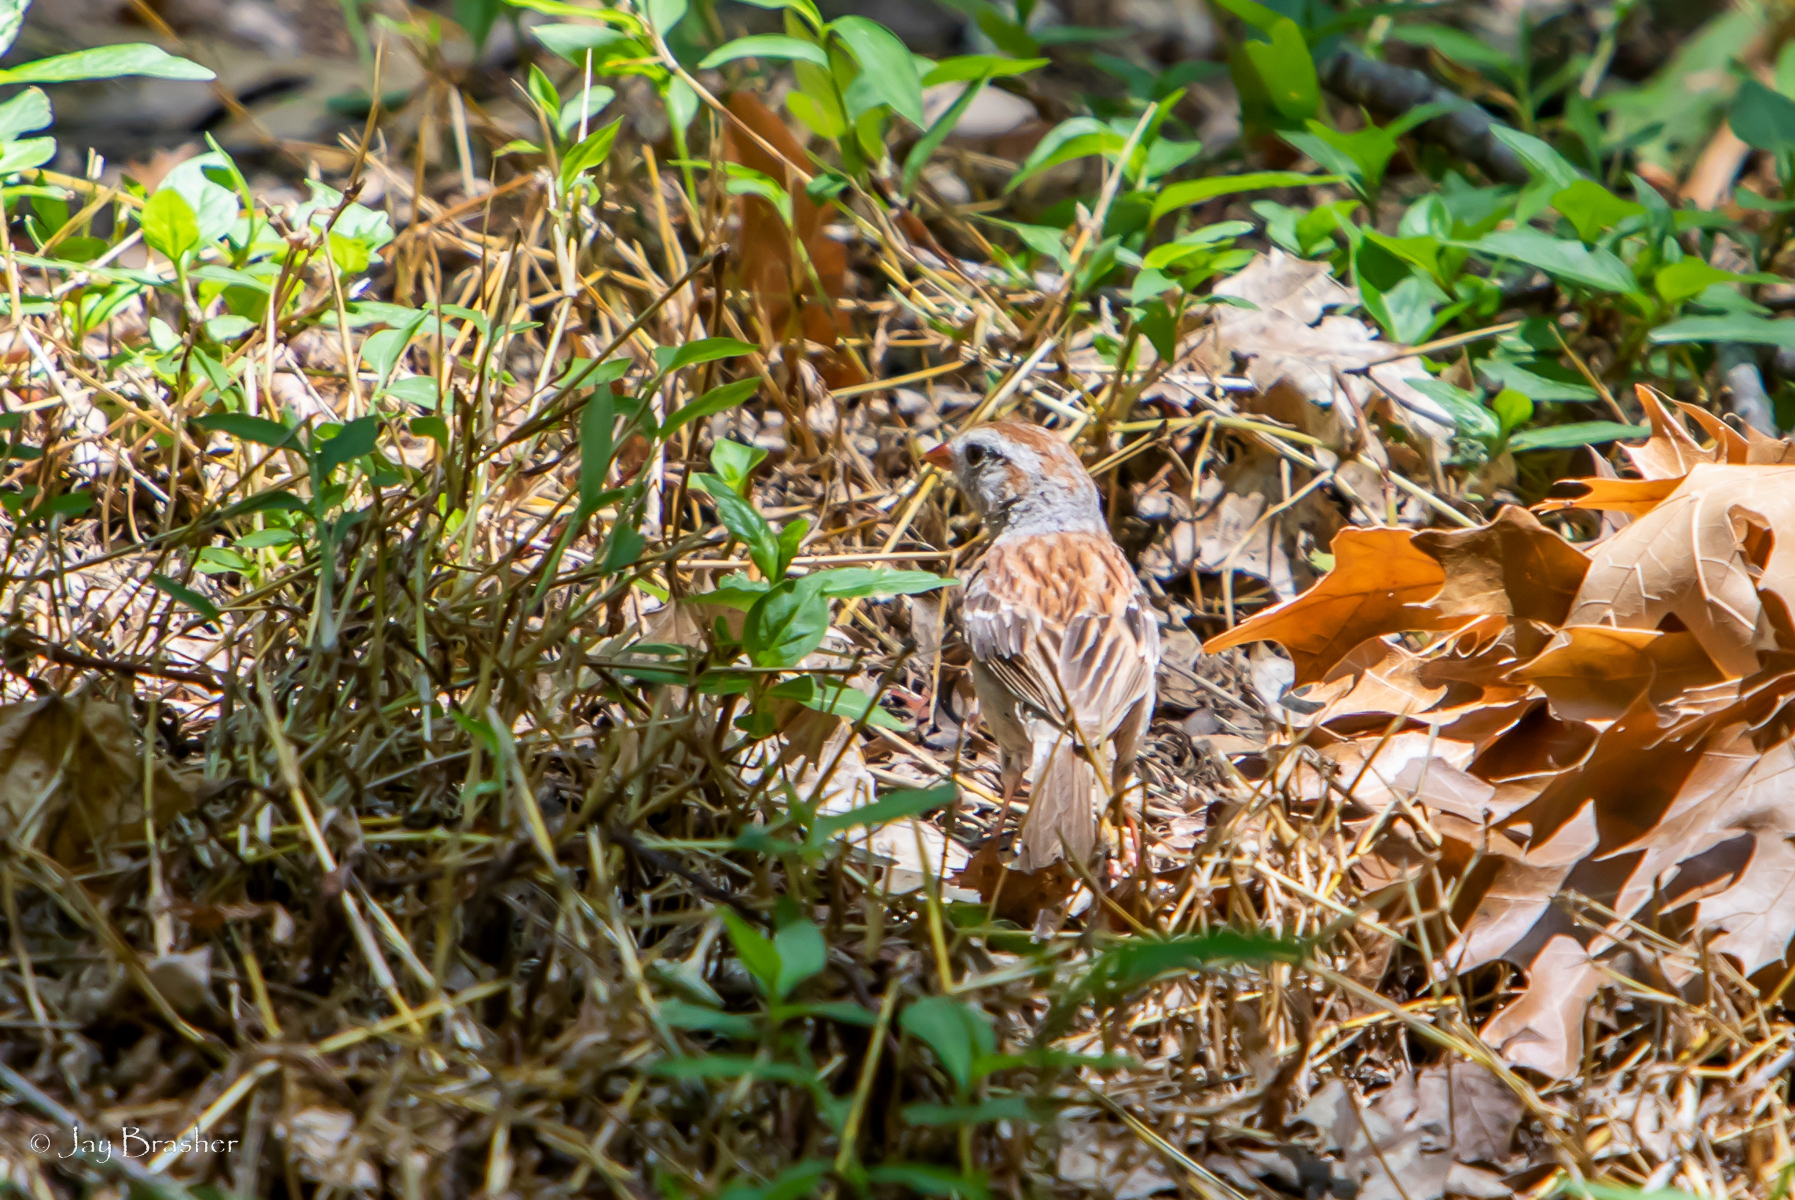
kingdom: Animalia
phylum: Chordata
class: Aves
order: Passeriformes
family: Passerellidae
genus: Spizella
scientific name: Spizella pusilla
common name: Field sparrow
